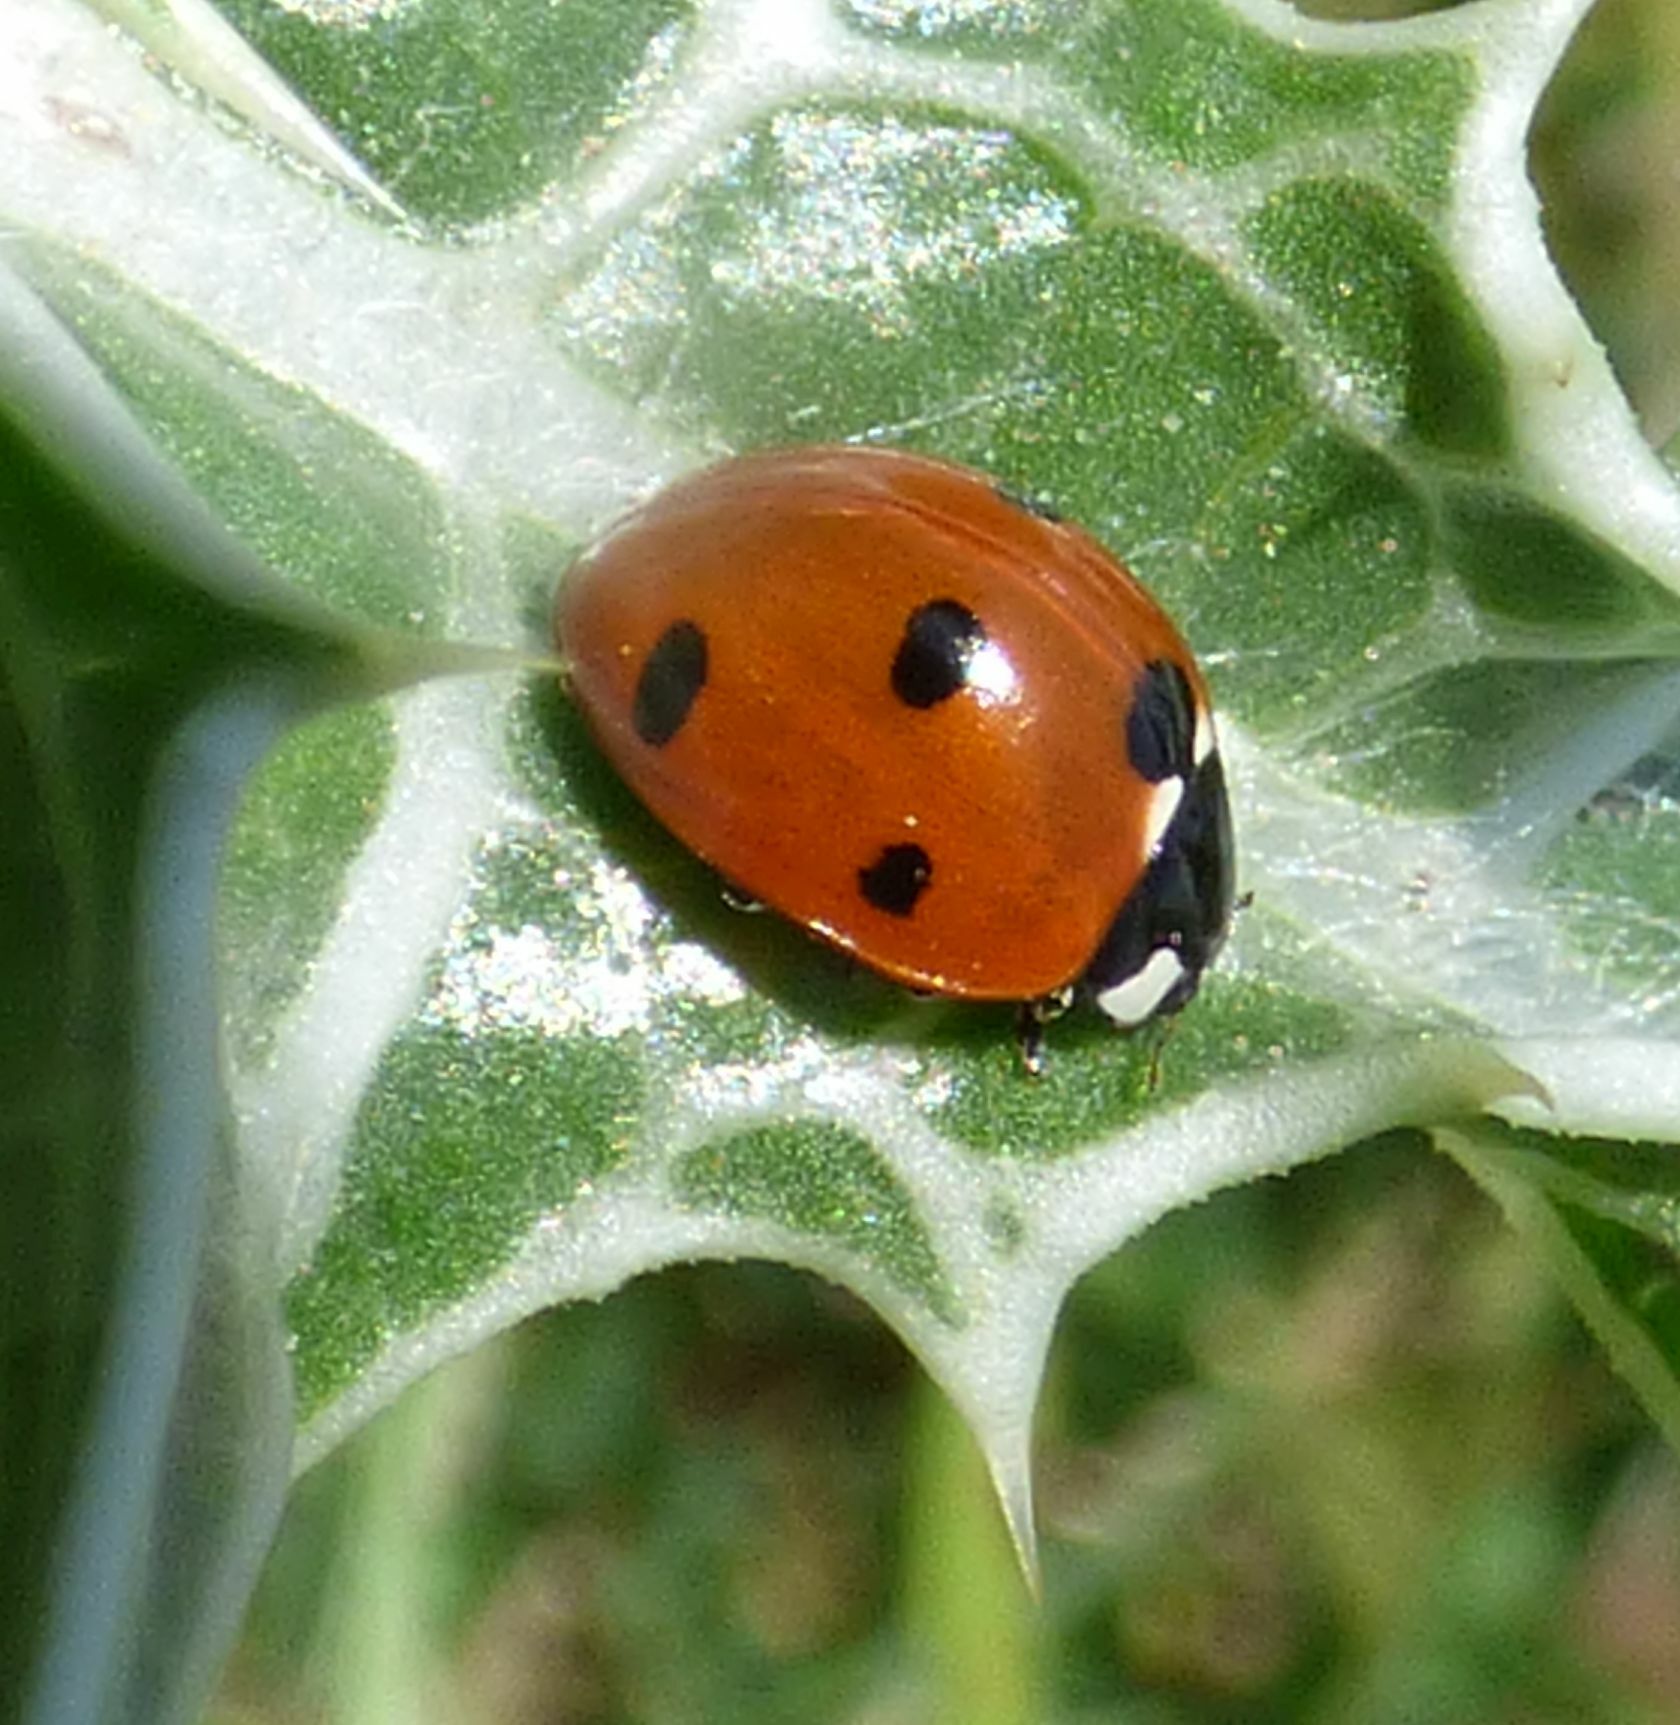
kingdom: Animalia
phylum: Arthropoda
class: Insecta
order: Coleoptera
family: Coccinellidae
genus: Coccinella
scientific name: Coccinella septempunctata
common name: Sevenspotted lady beetle
